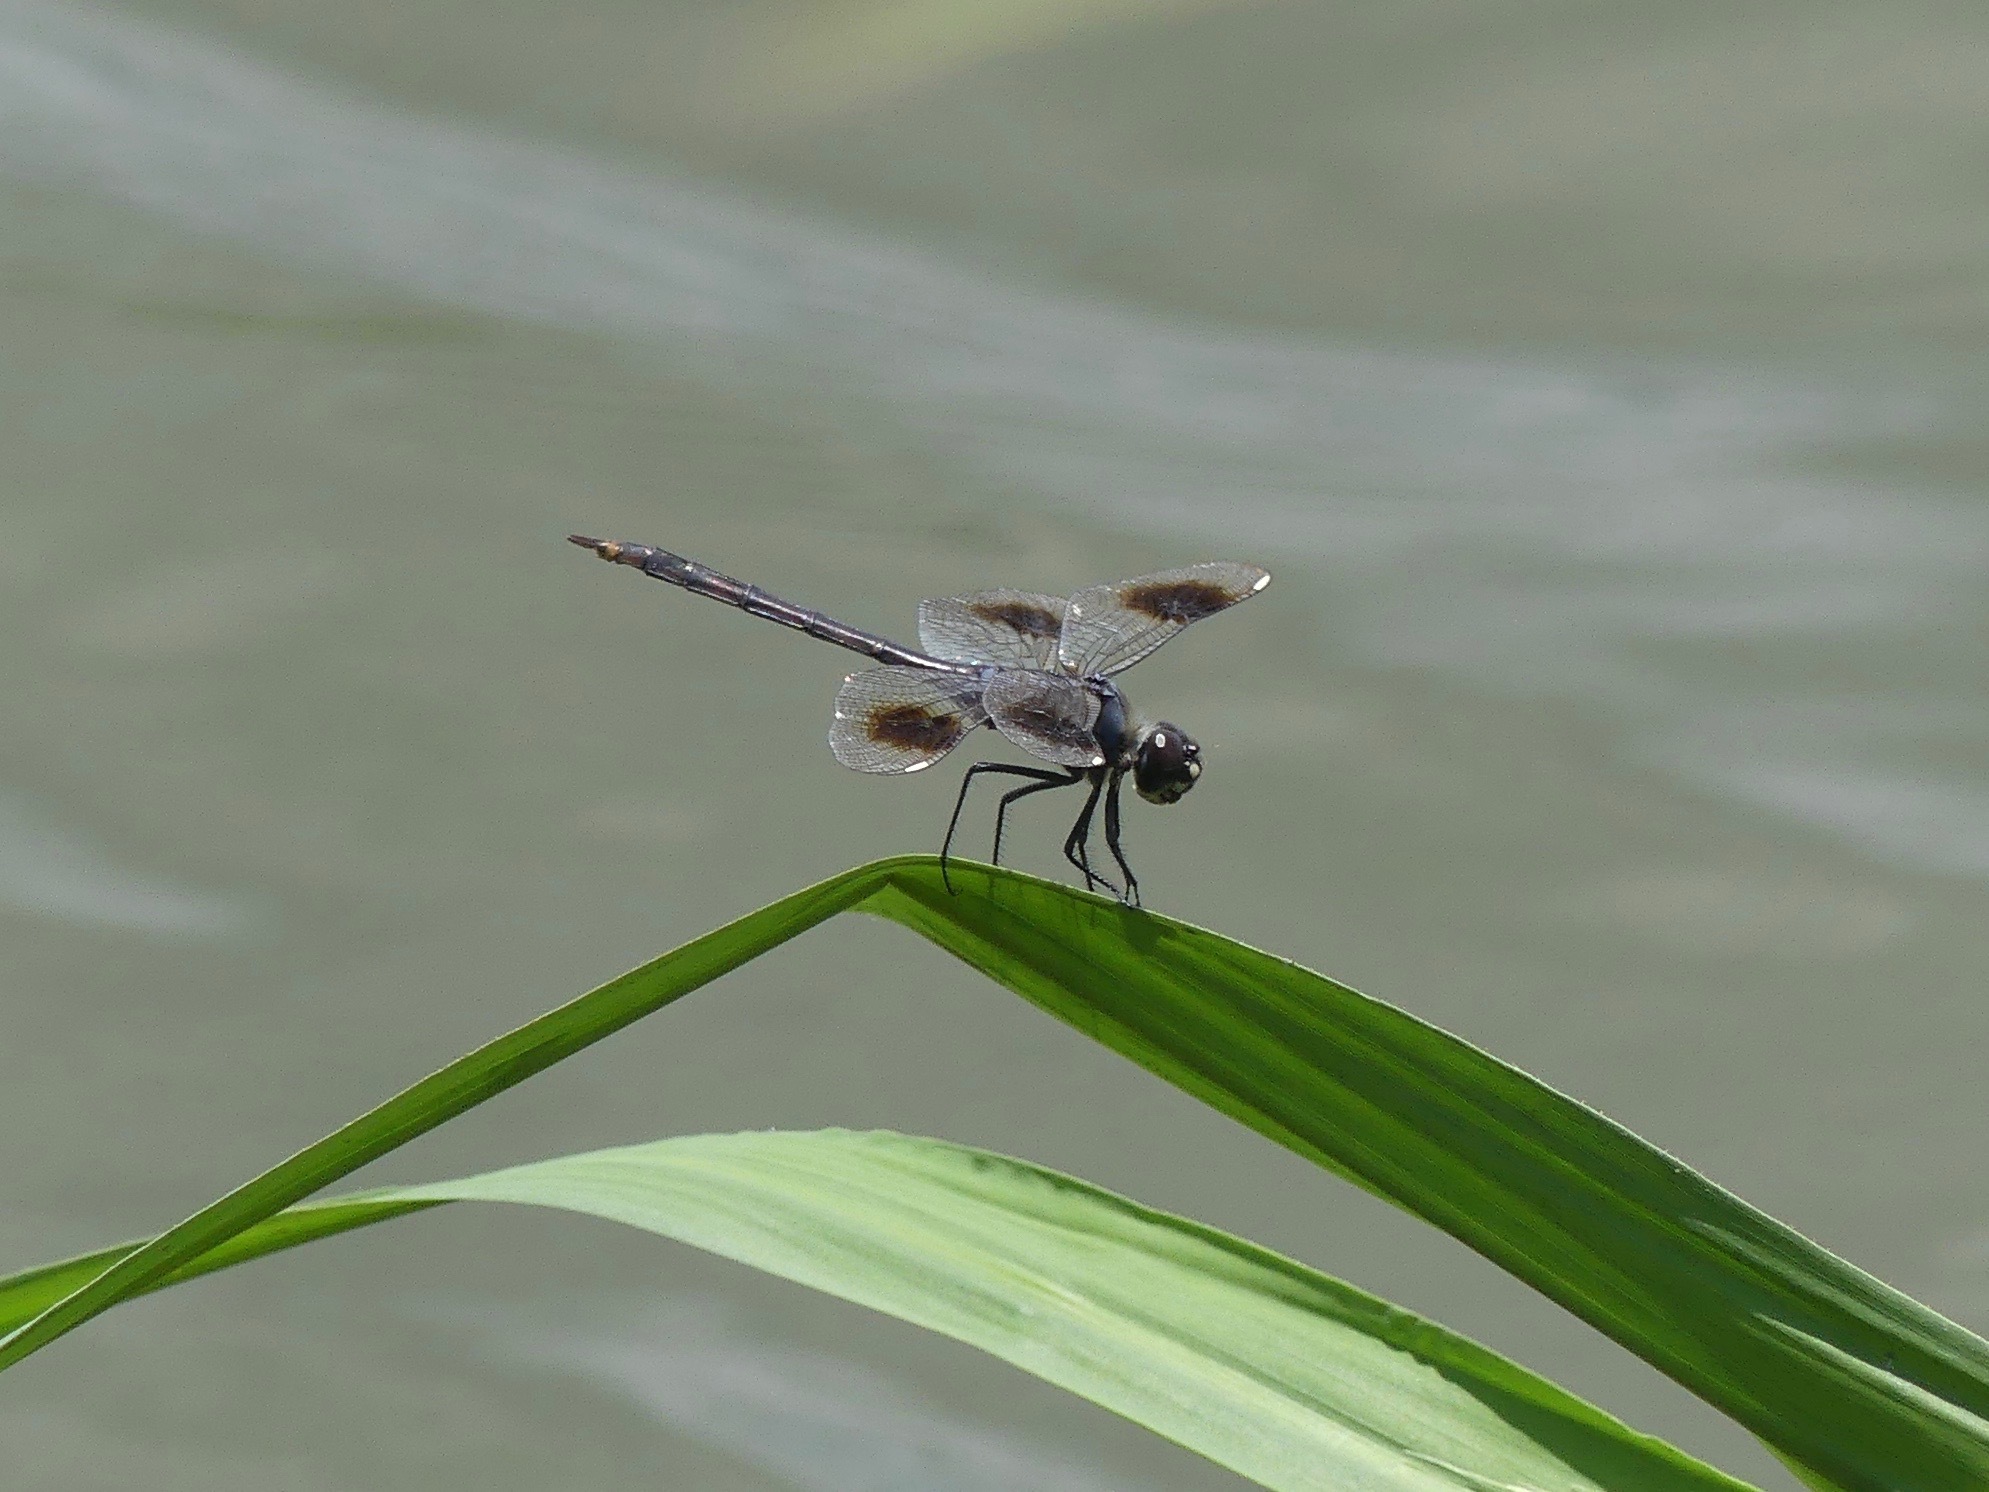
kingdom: Animalia
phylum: Arthropoda
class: Insecta
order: Odonata
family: Libellulidae
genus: Brachymesia
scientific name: Brachymesia gravida
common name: Four-spotted pennant
